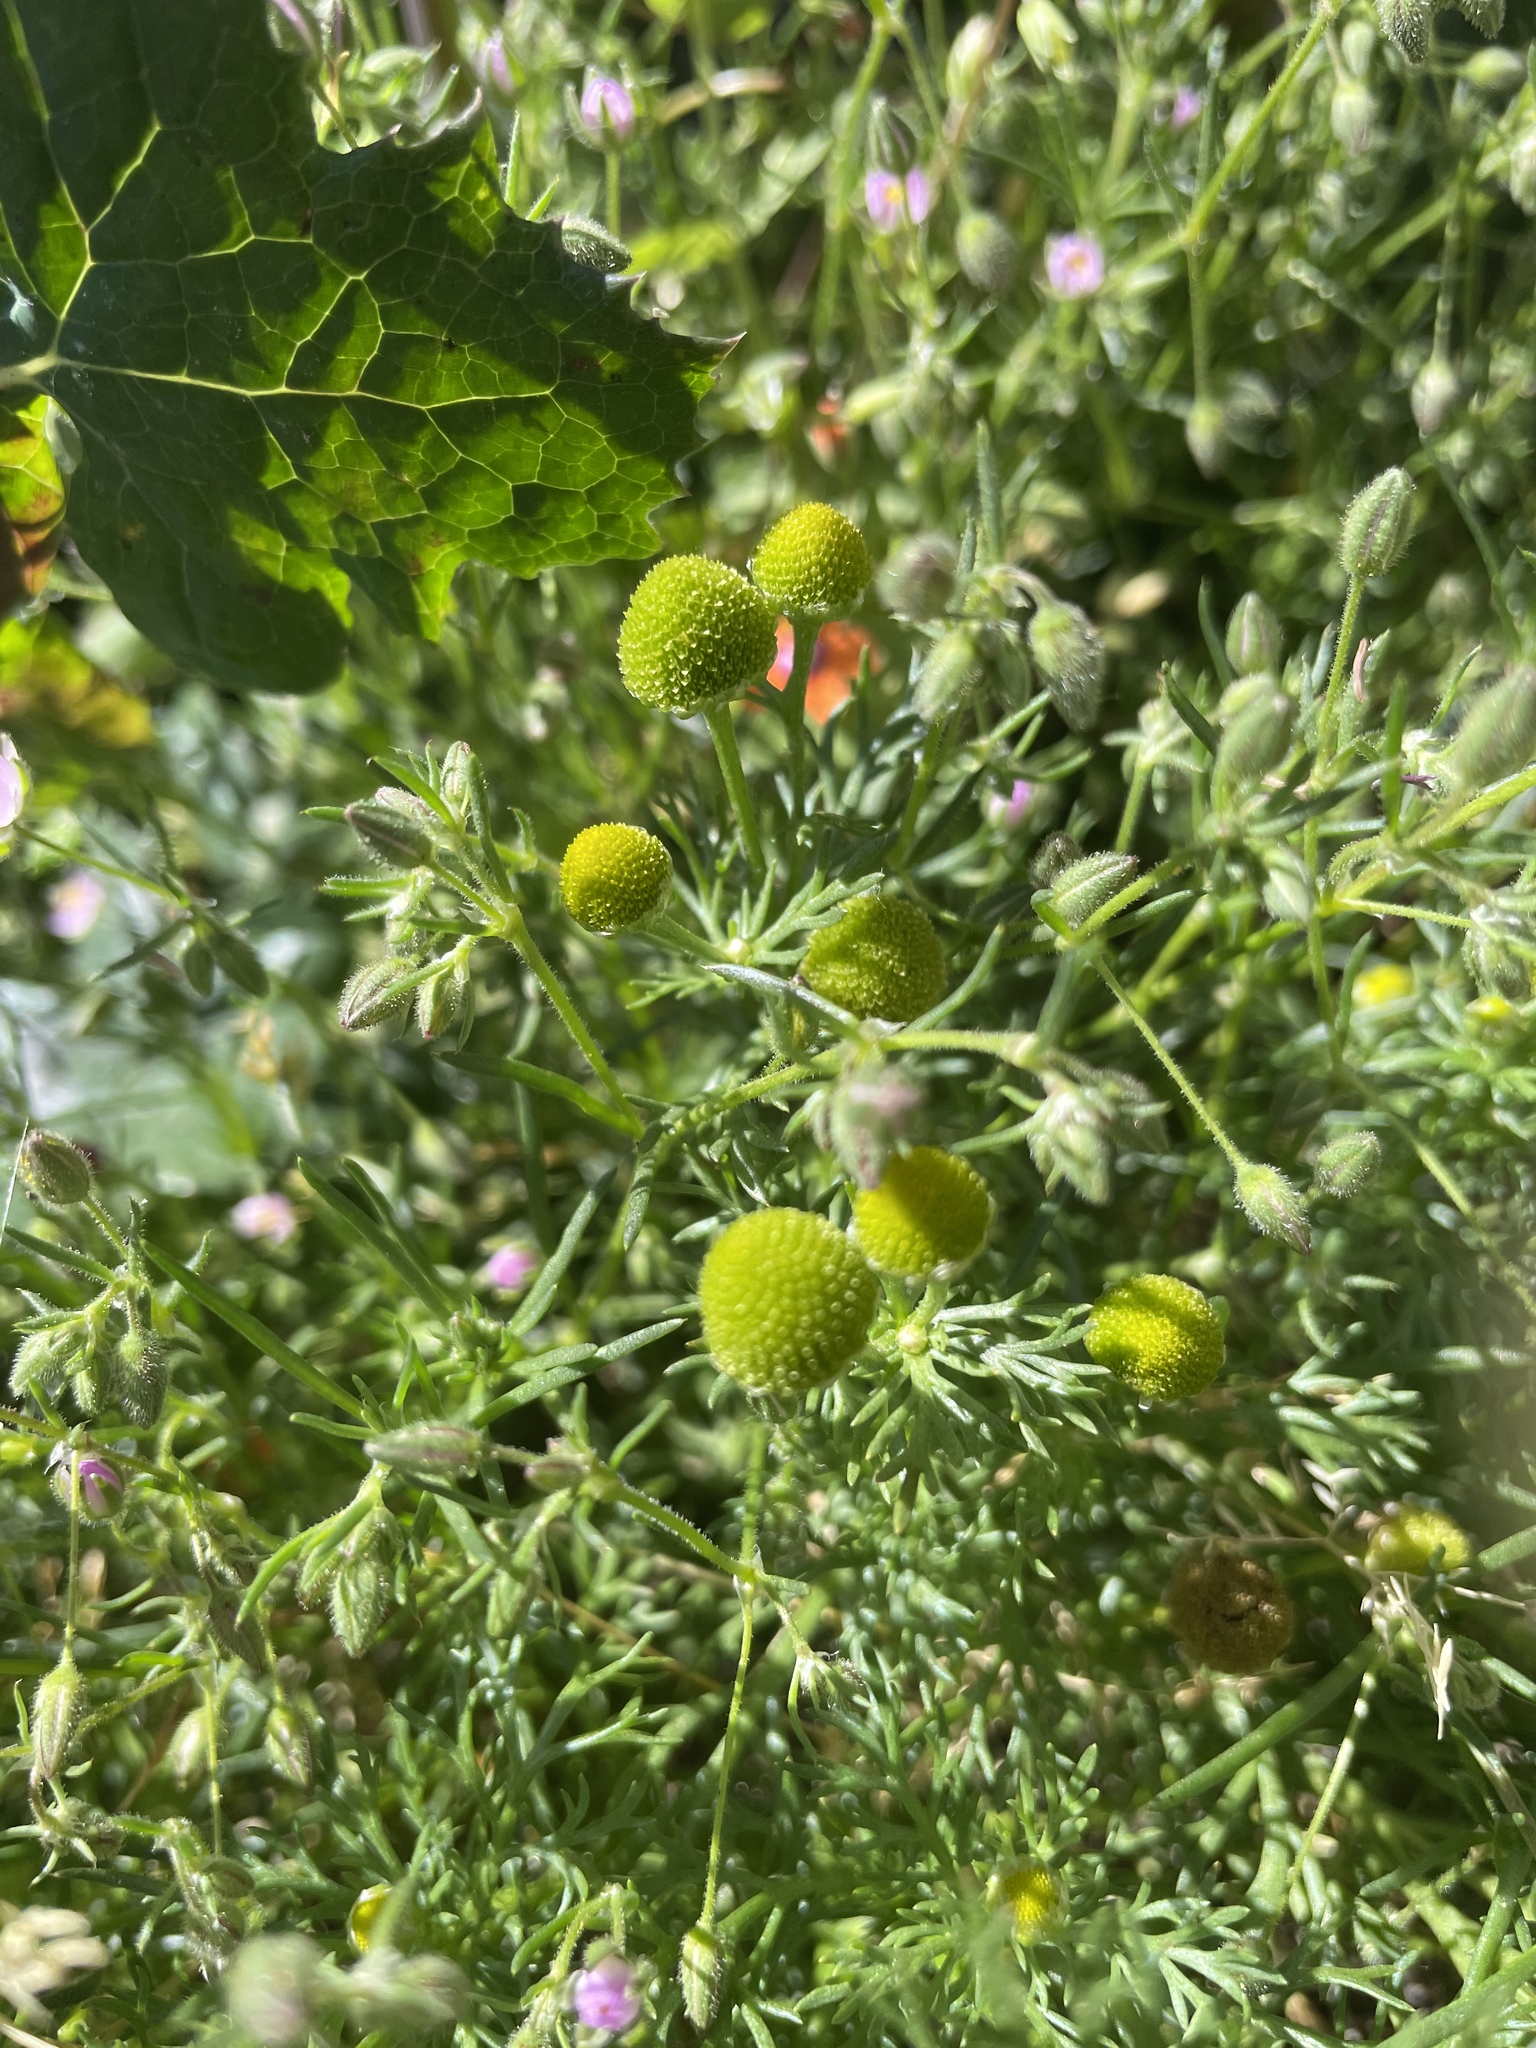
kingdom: Plantae
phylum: Tracheophyta
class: Magnoliopsida
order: Asterales
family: Asteraceae
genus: Matricaria
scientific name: Matricaria discoidea
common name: Disc mayweed
